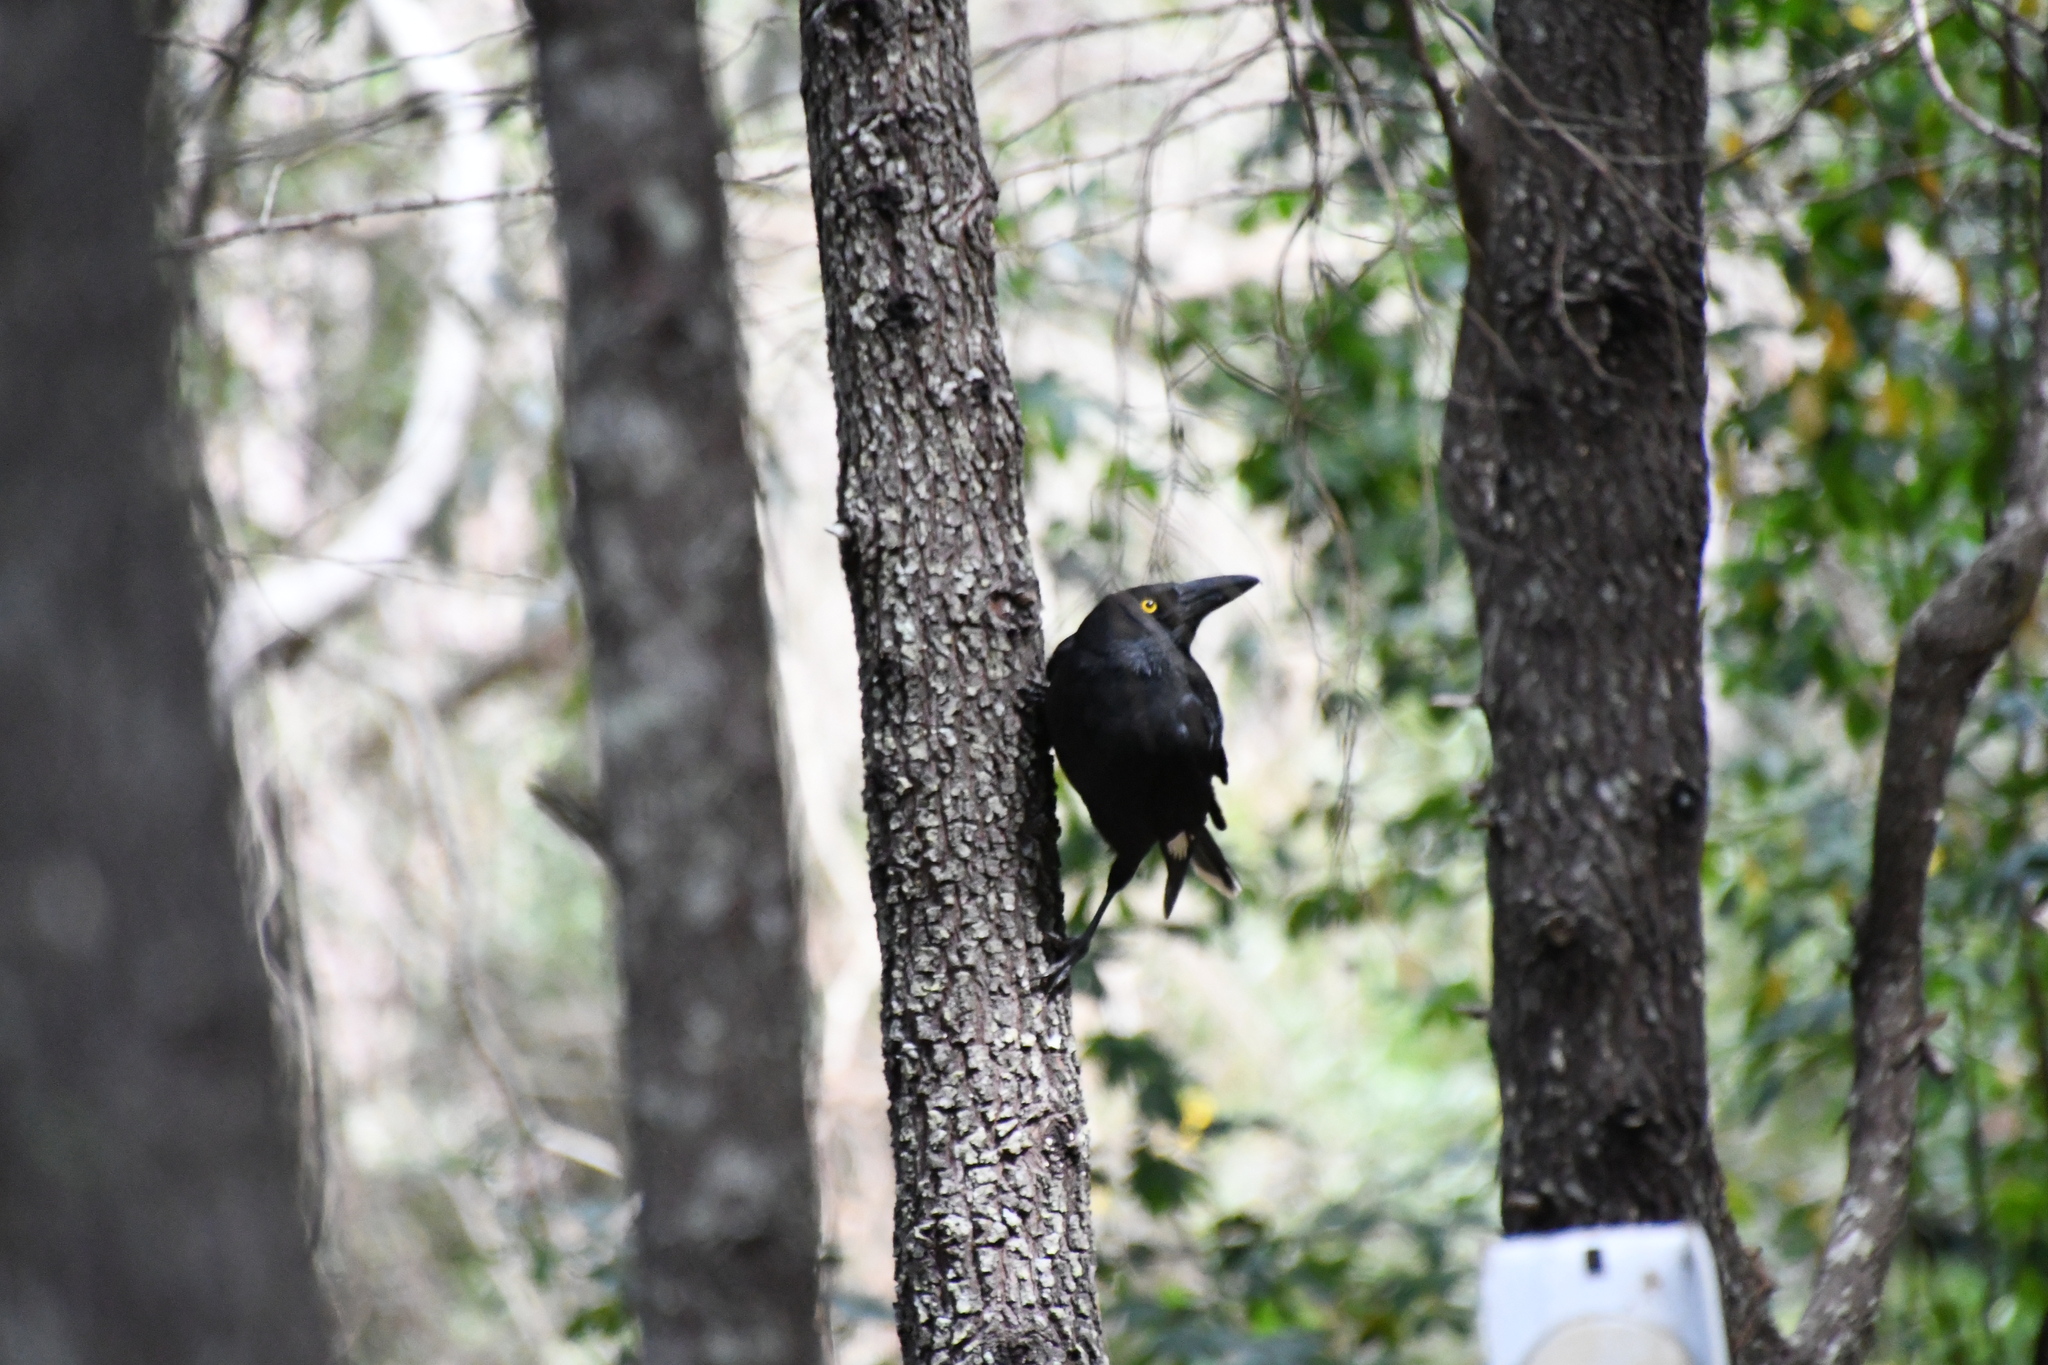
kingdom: Animalia
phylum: Chordata
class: Aves
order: Passeriformes
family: Cracticidae
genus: Strepera
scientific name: Strepera graculina
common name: Pied currawong
